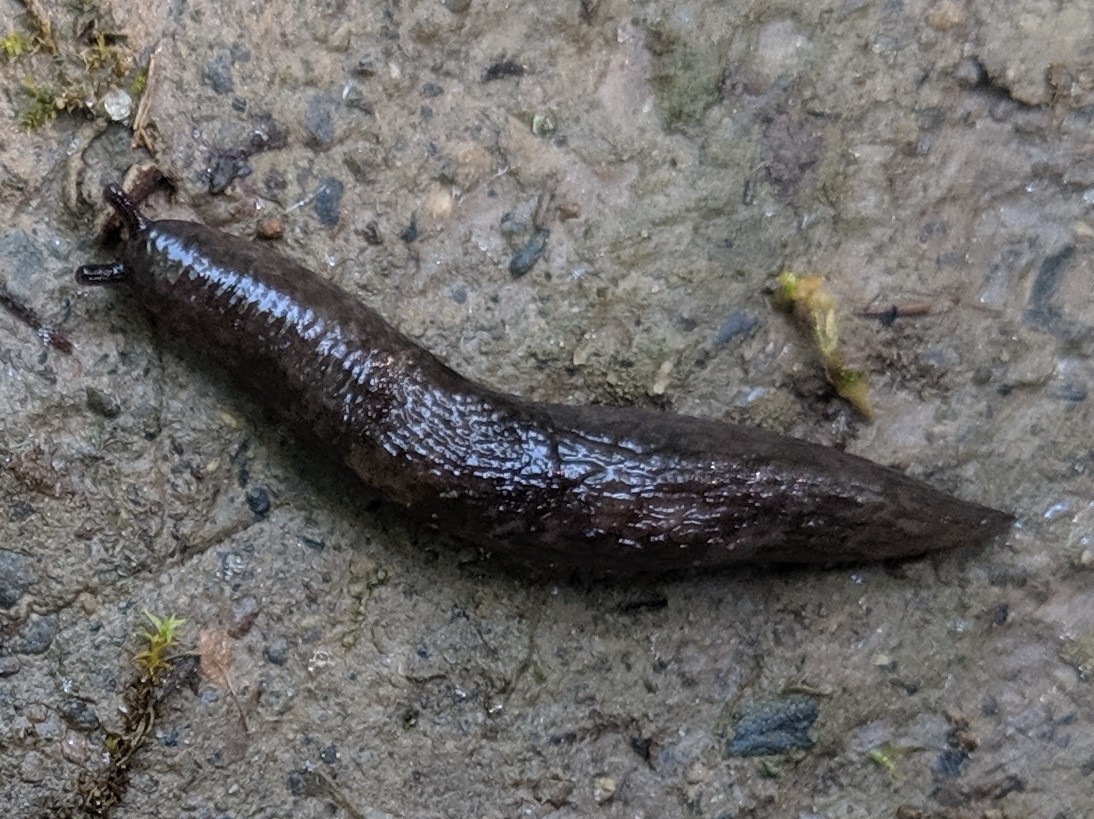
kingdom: Animalia
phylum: Mollusca
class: Gastropoda
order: Stylommatophora
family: Agriolimacidae
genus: Deroceras
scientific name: Deroceras laeve
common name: Marsh slug
